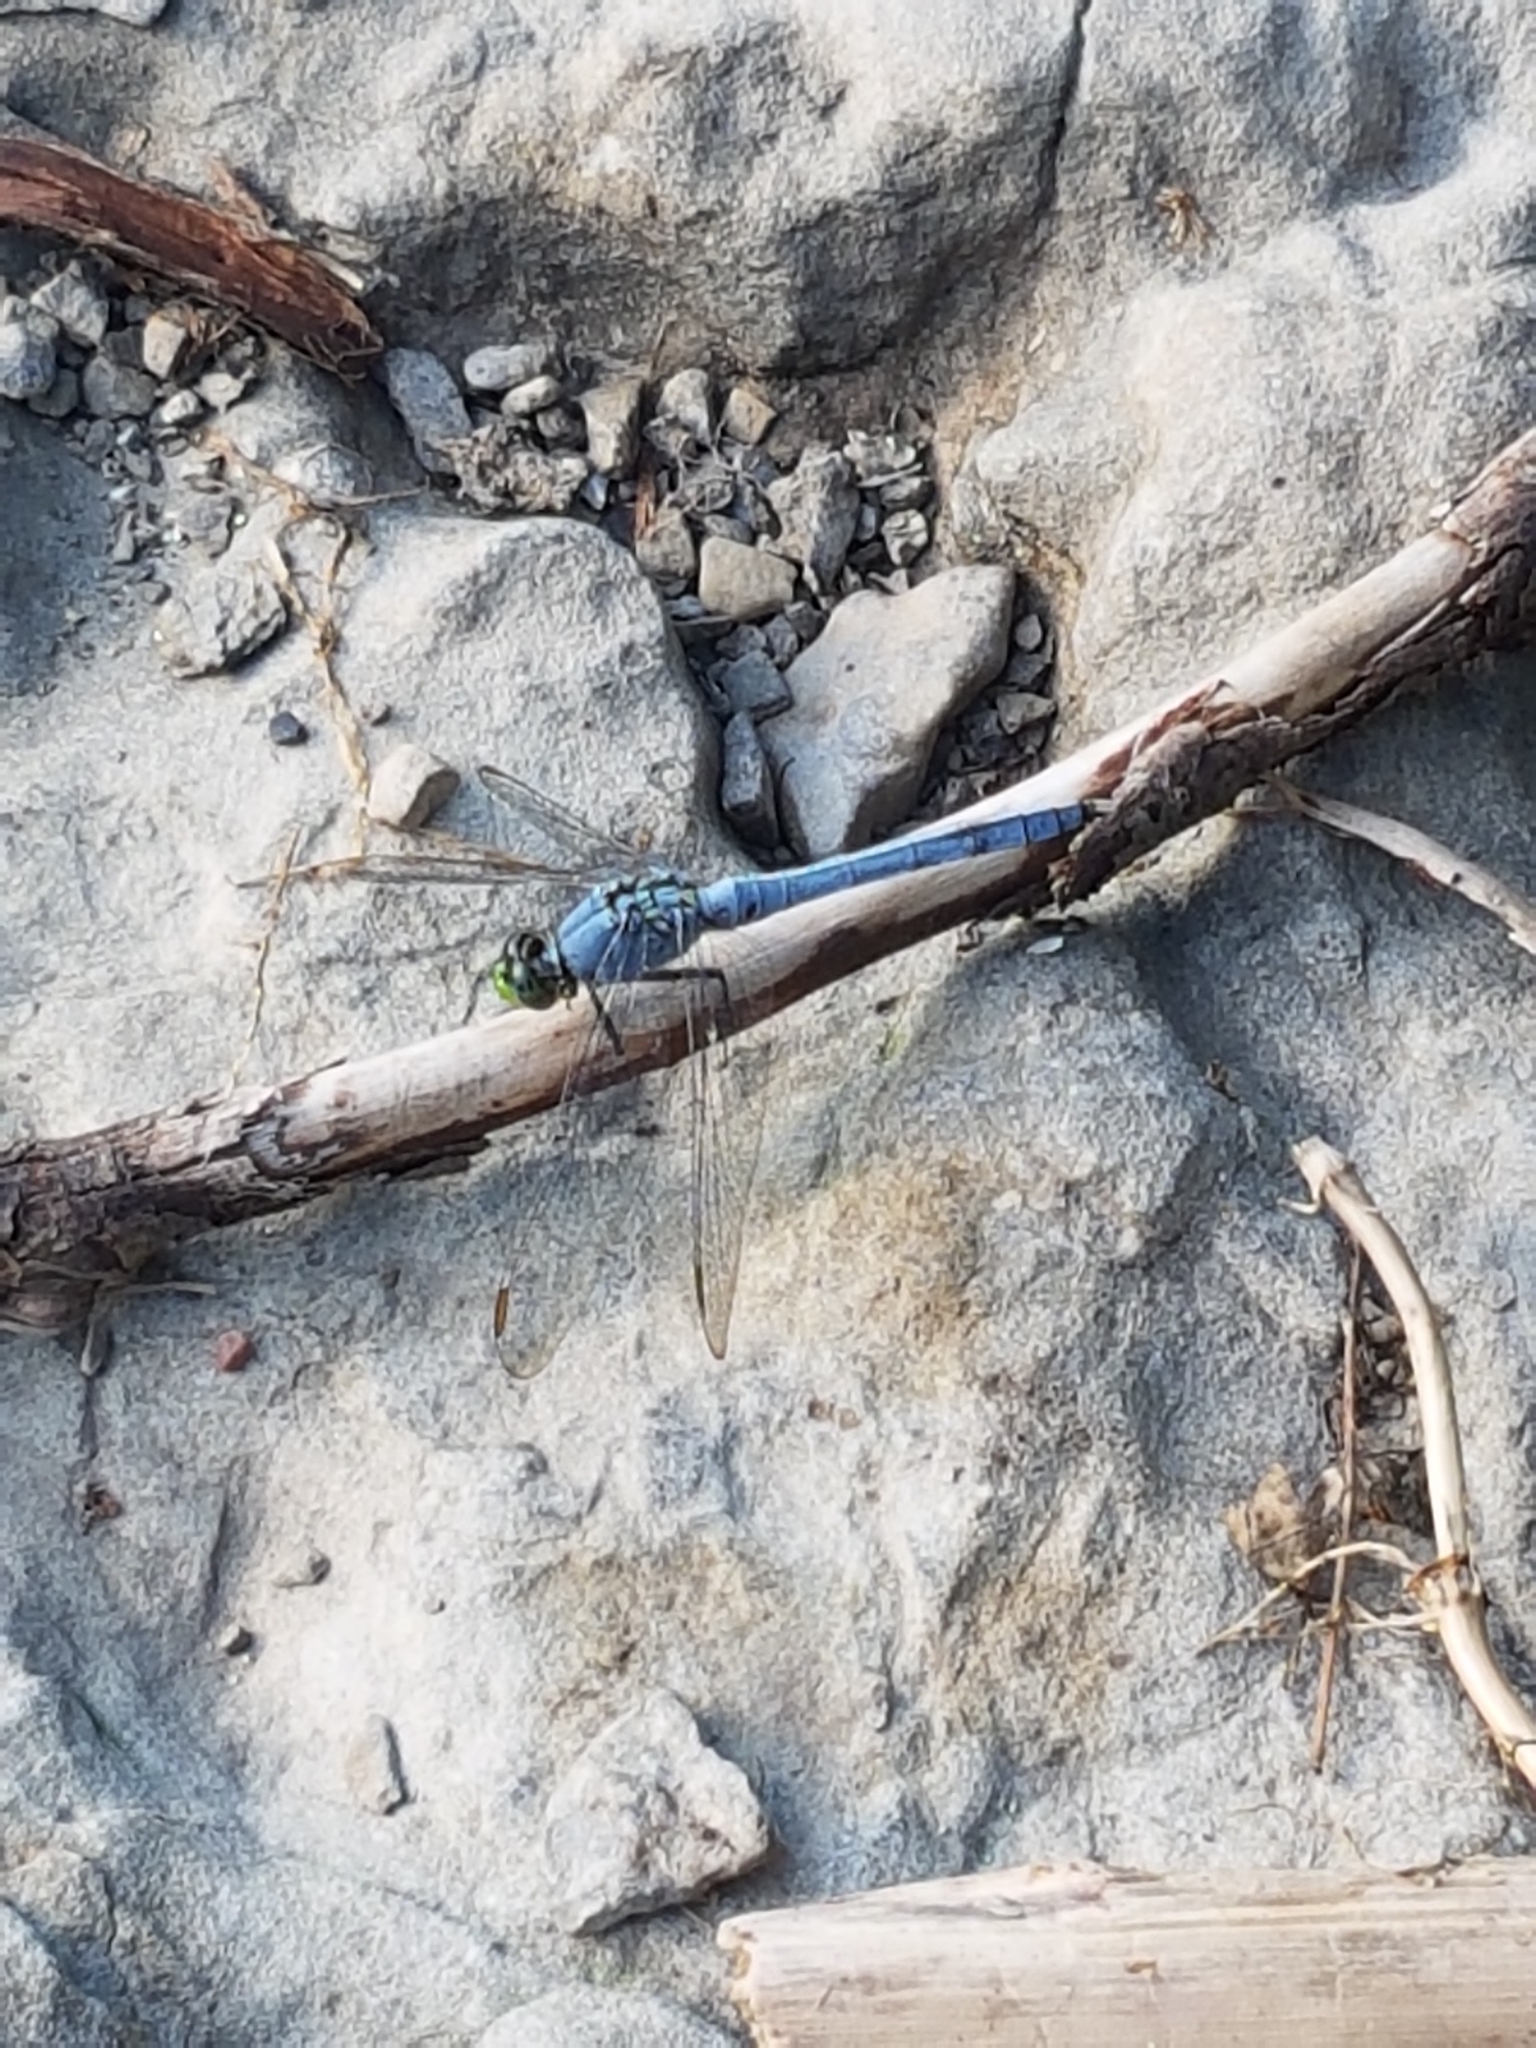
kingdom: Animalia
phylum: Arthropoda
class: Insecta
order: Odonata
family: Libellulidae
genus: Erythemis
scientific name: Erythemis simplicicollis
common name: Eastern pondhawk
